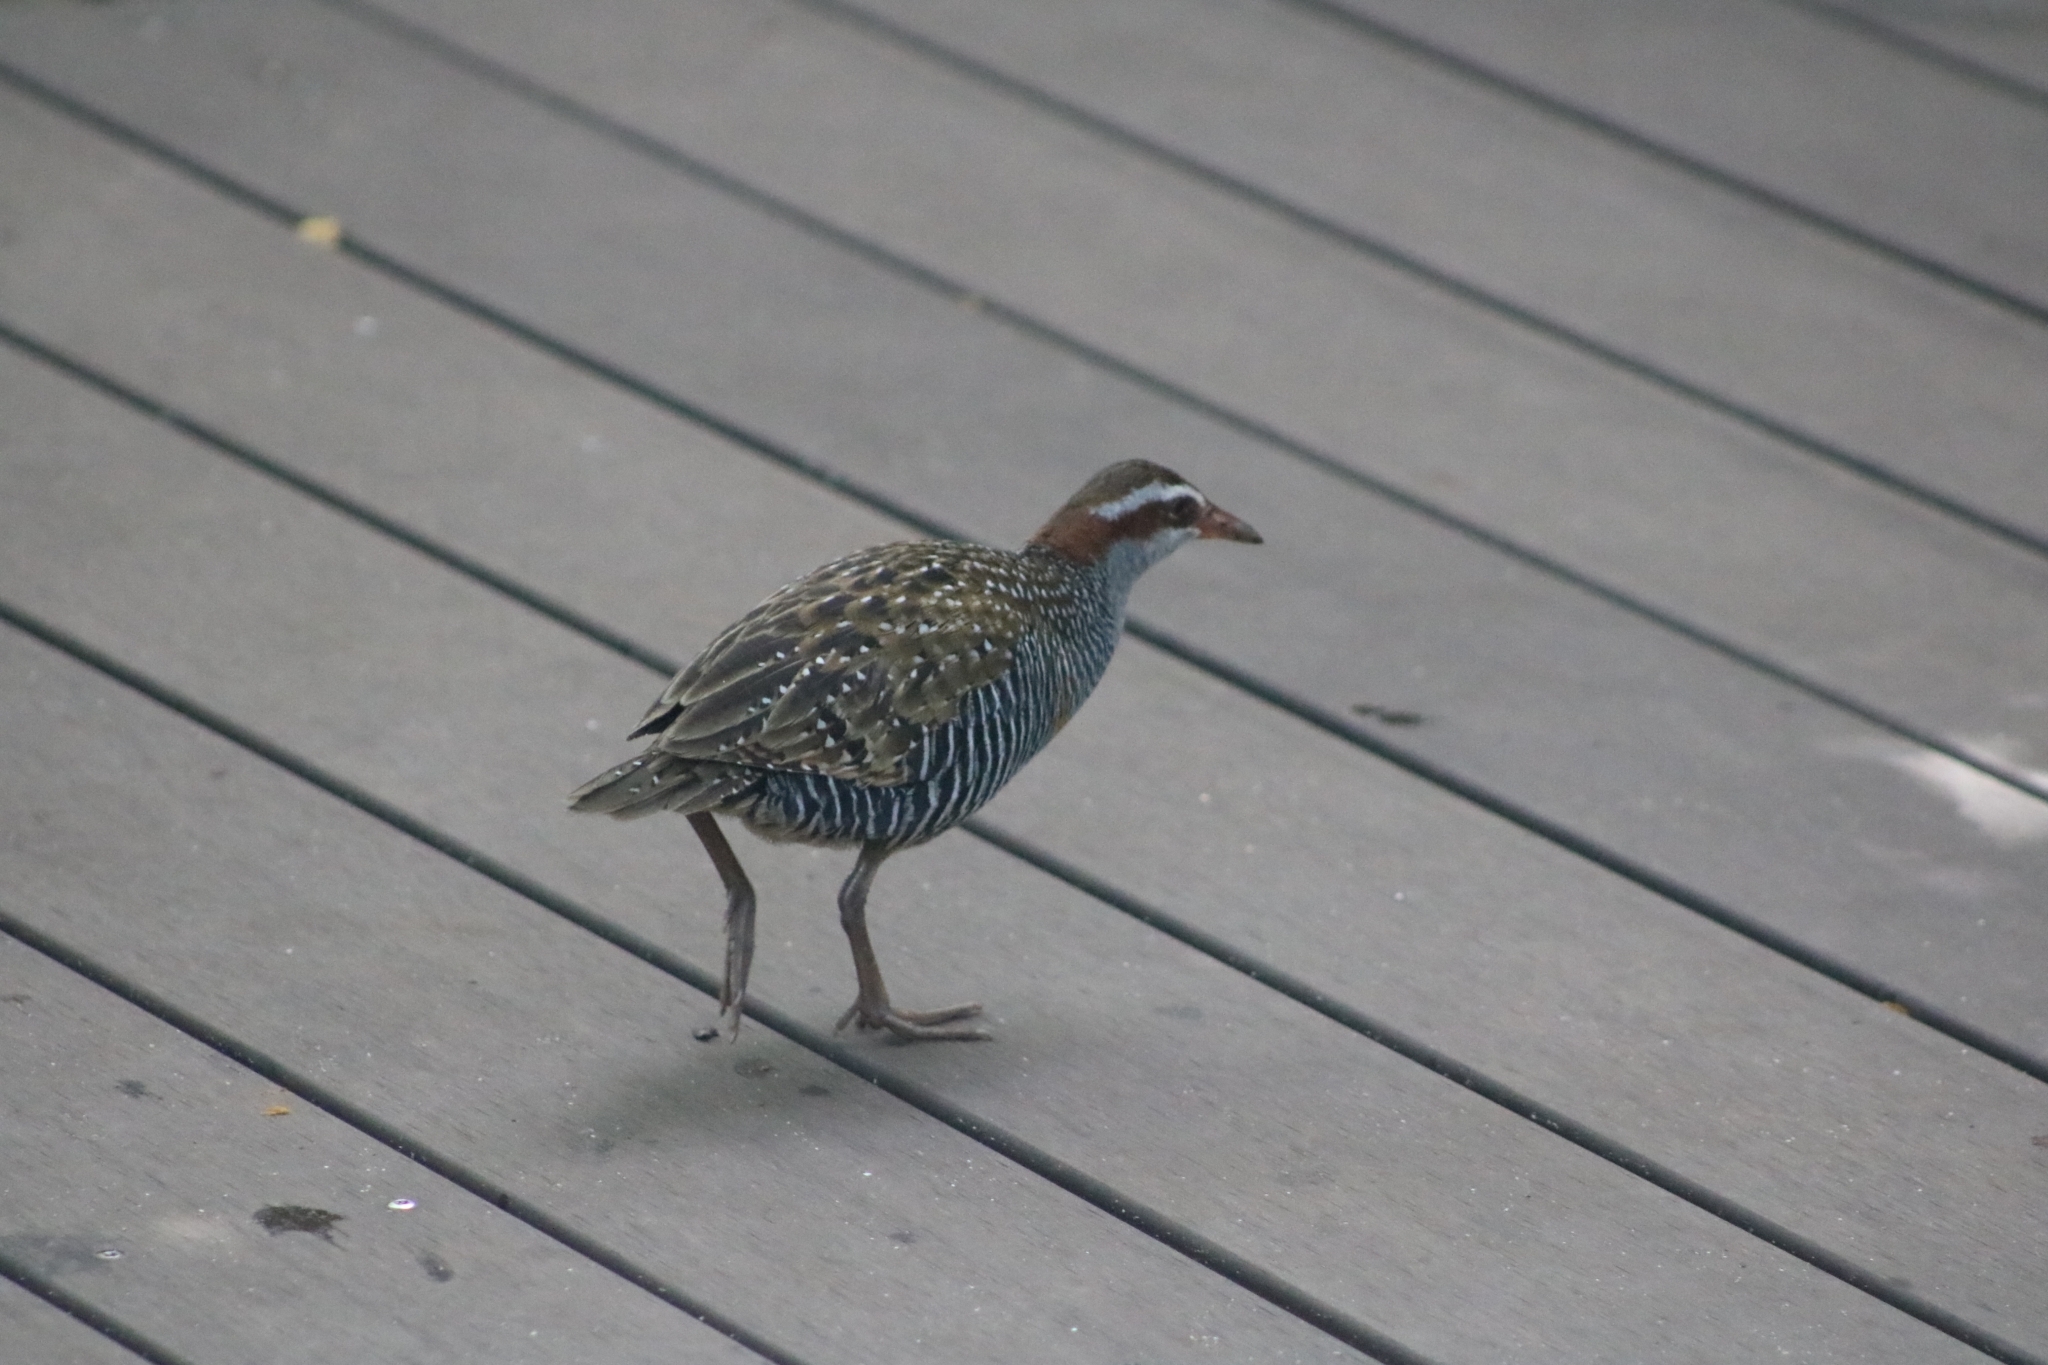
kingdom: Animalia
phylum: Chordata
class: Aves
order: Gruiformes
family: Rallidae
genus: Gallirallus
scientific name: Gallirallus philippensis
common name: Buff-banded rail
